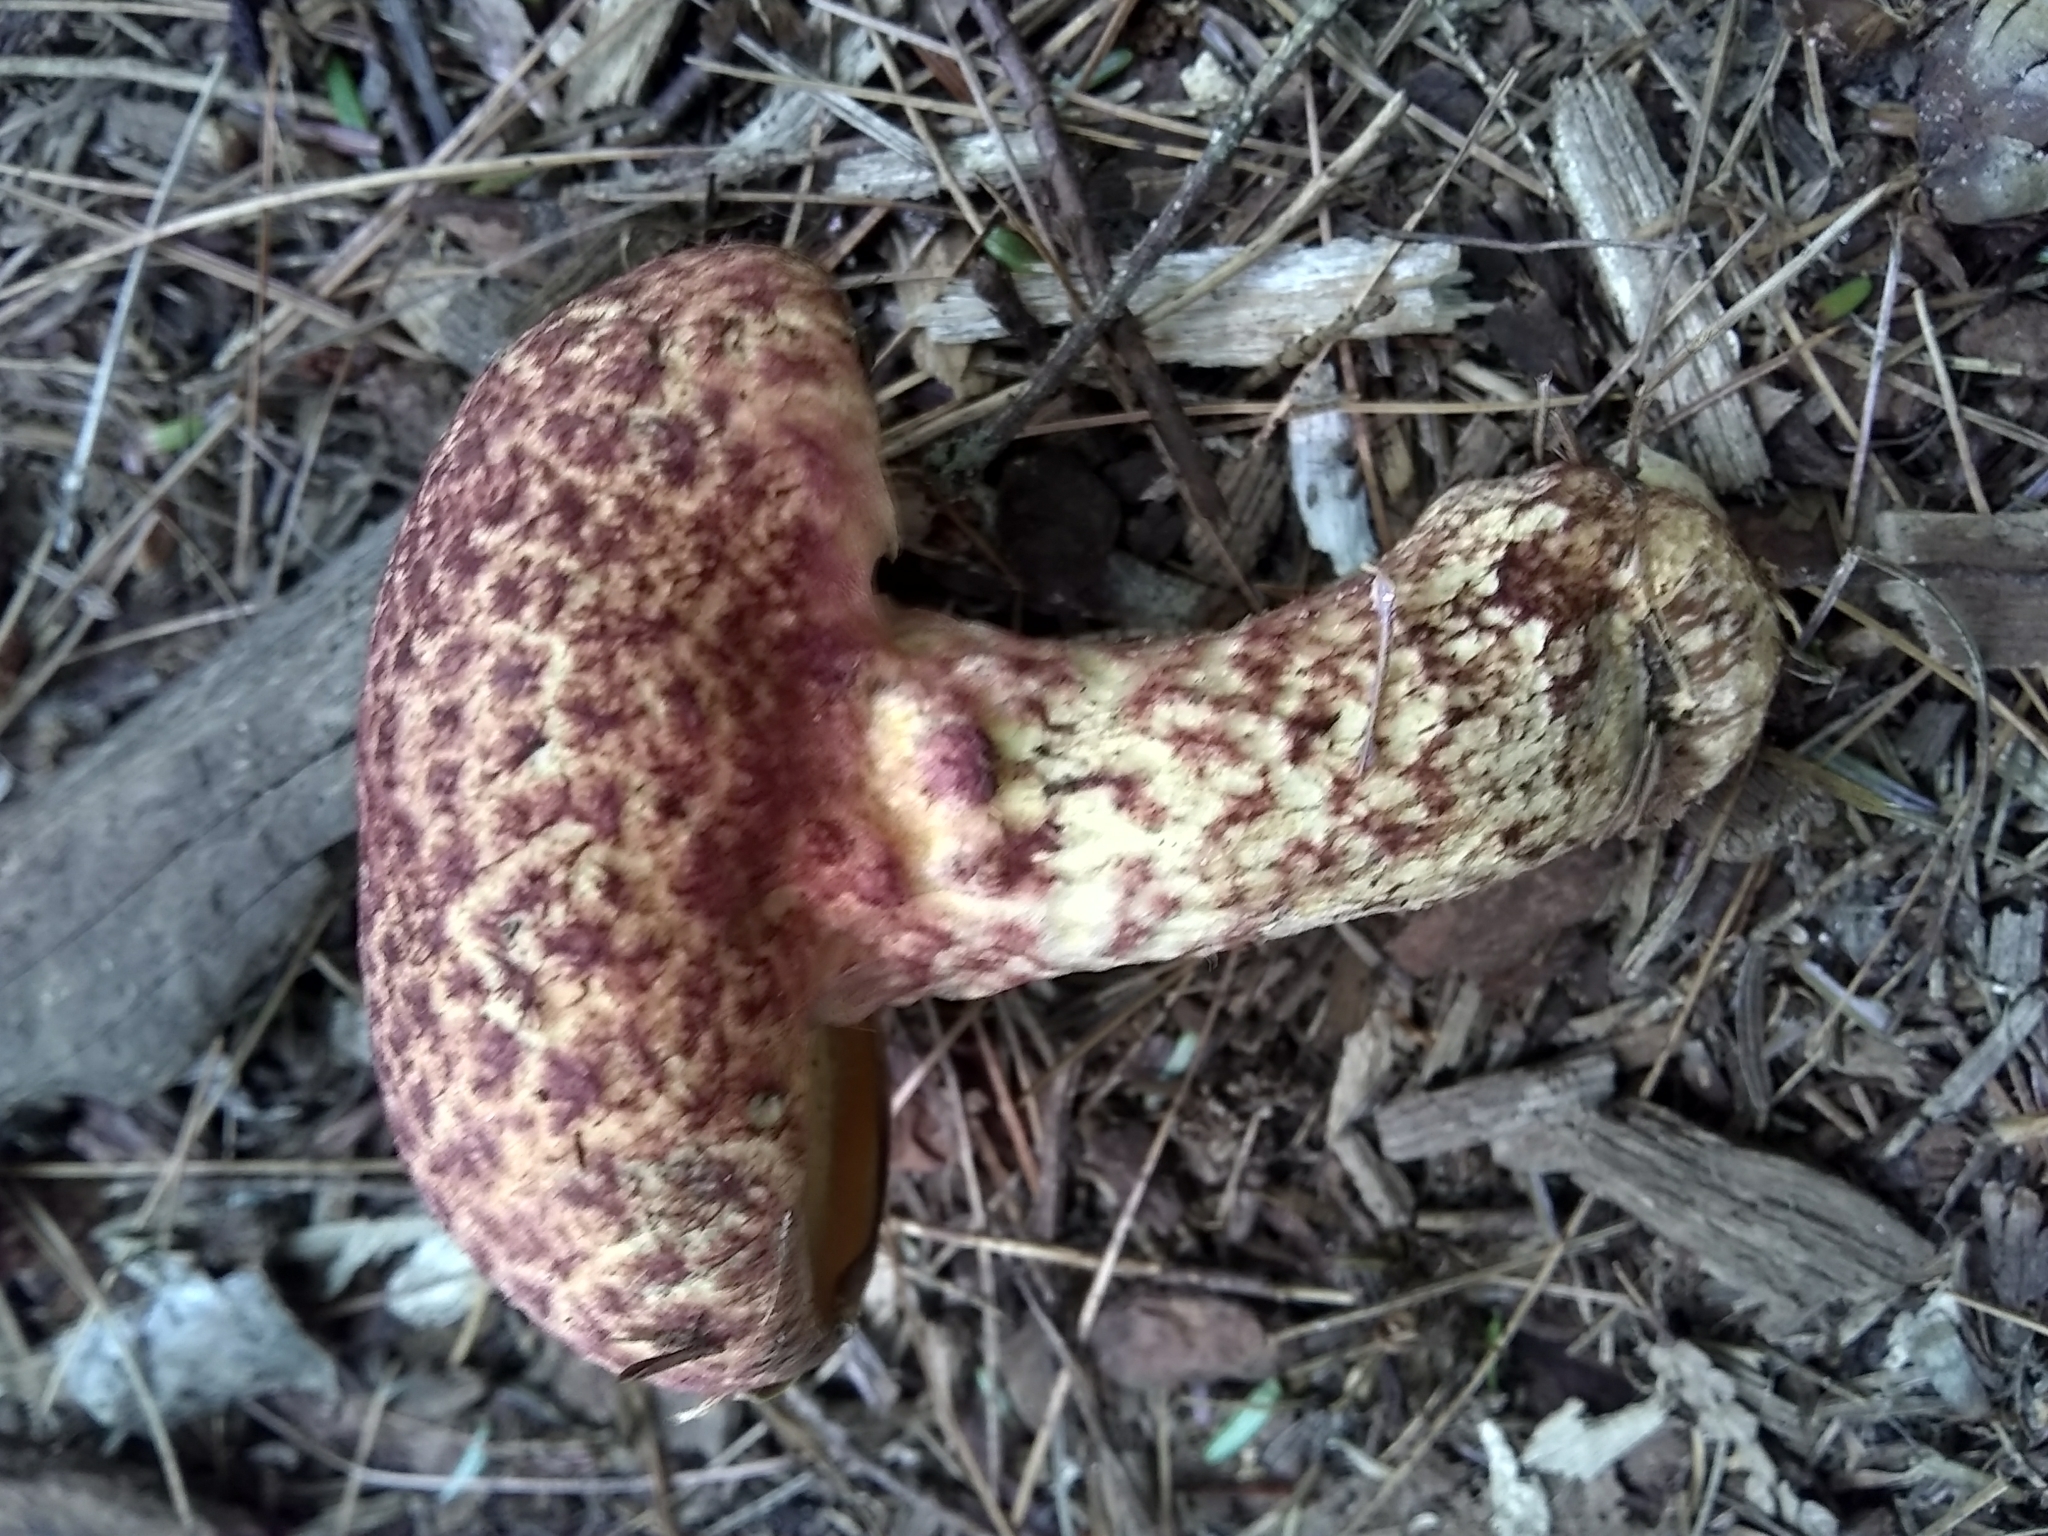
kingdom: Fungi
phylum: Basidiomycota
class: Agaricomycetes
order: Boletales
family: Suillaceae
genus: Suillus
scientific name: Suillus spraguei
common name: Painted suillus
